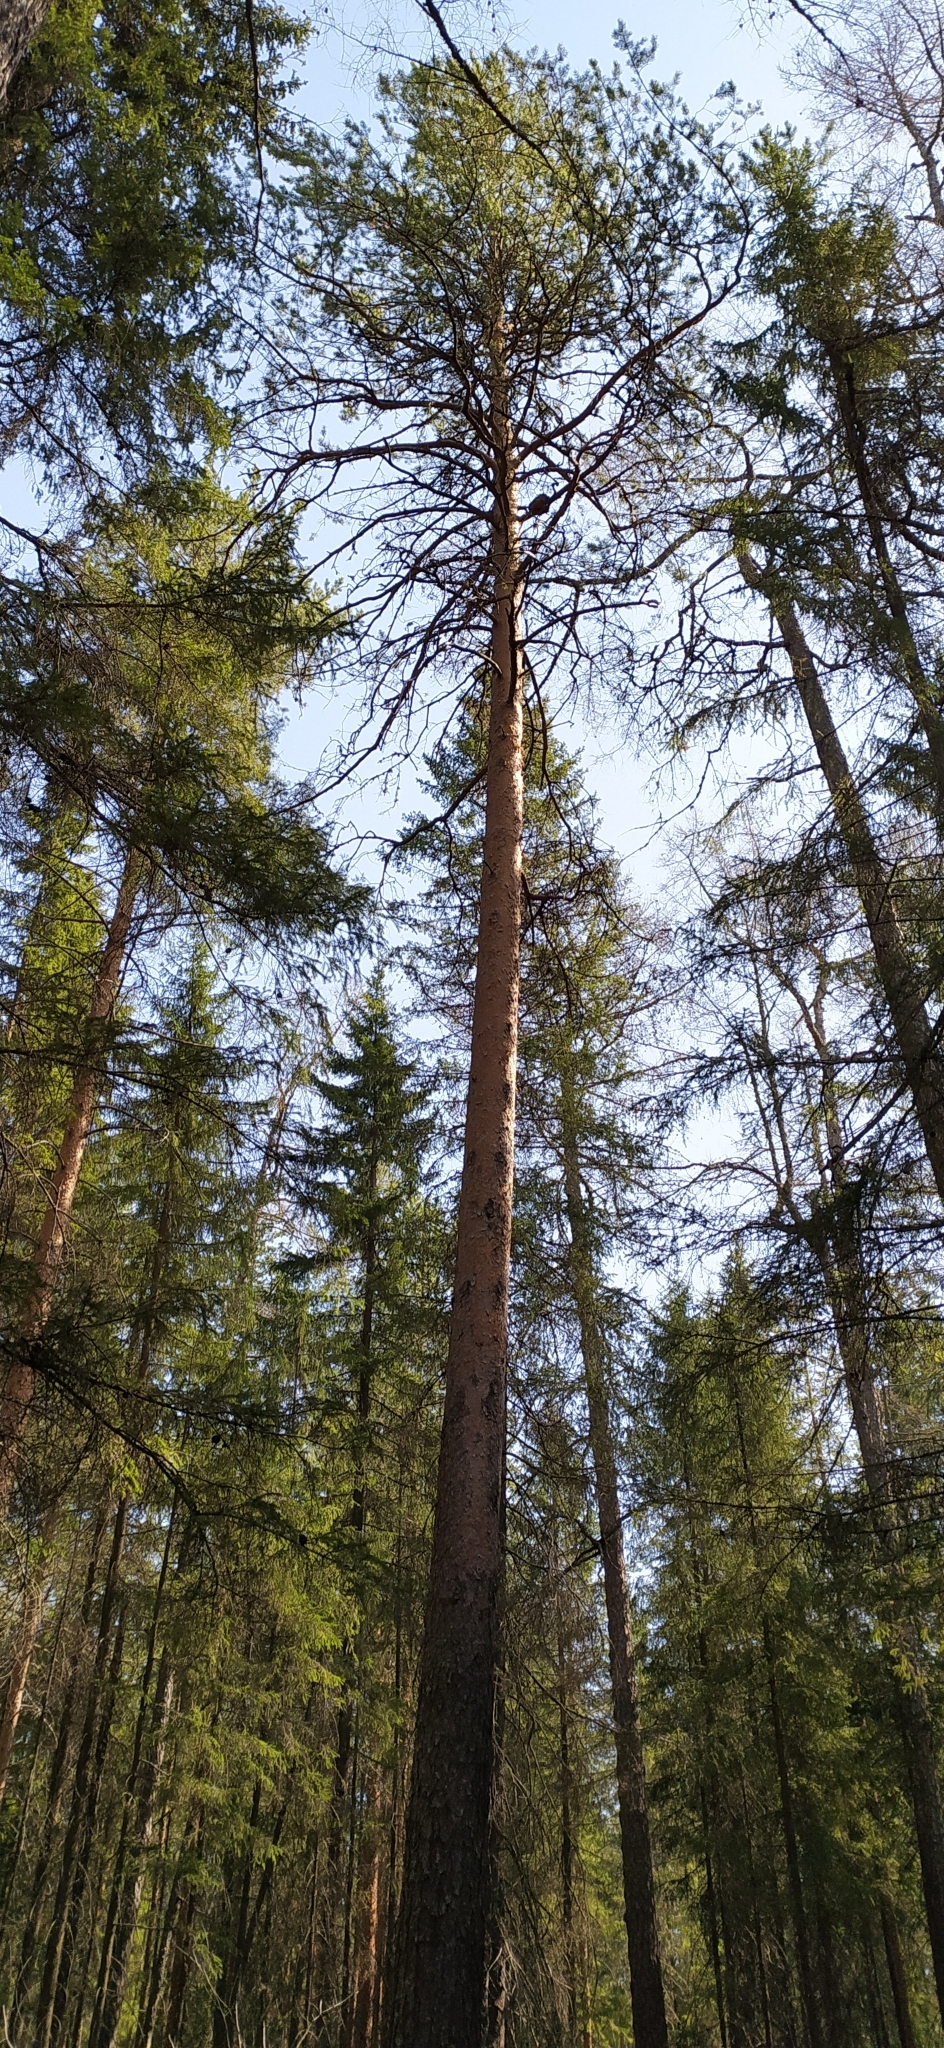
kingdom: Plantae
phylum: Tracheophyta
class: Pinopsida
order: Pinales
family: Pinaceae
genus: Pinus
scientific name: Pinus sylvestris
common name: Scots pine
